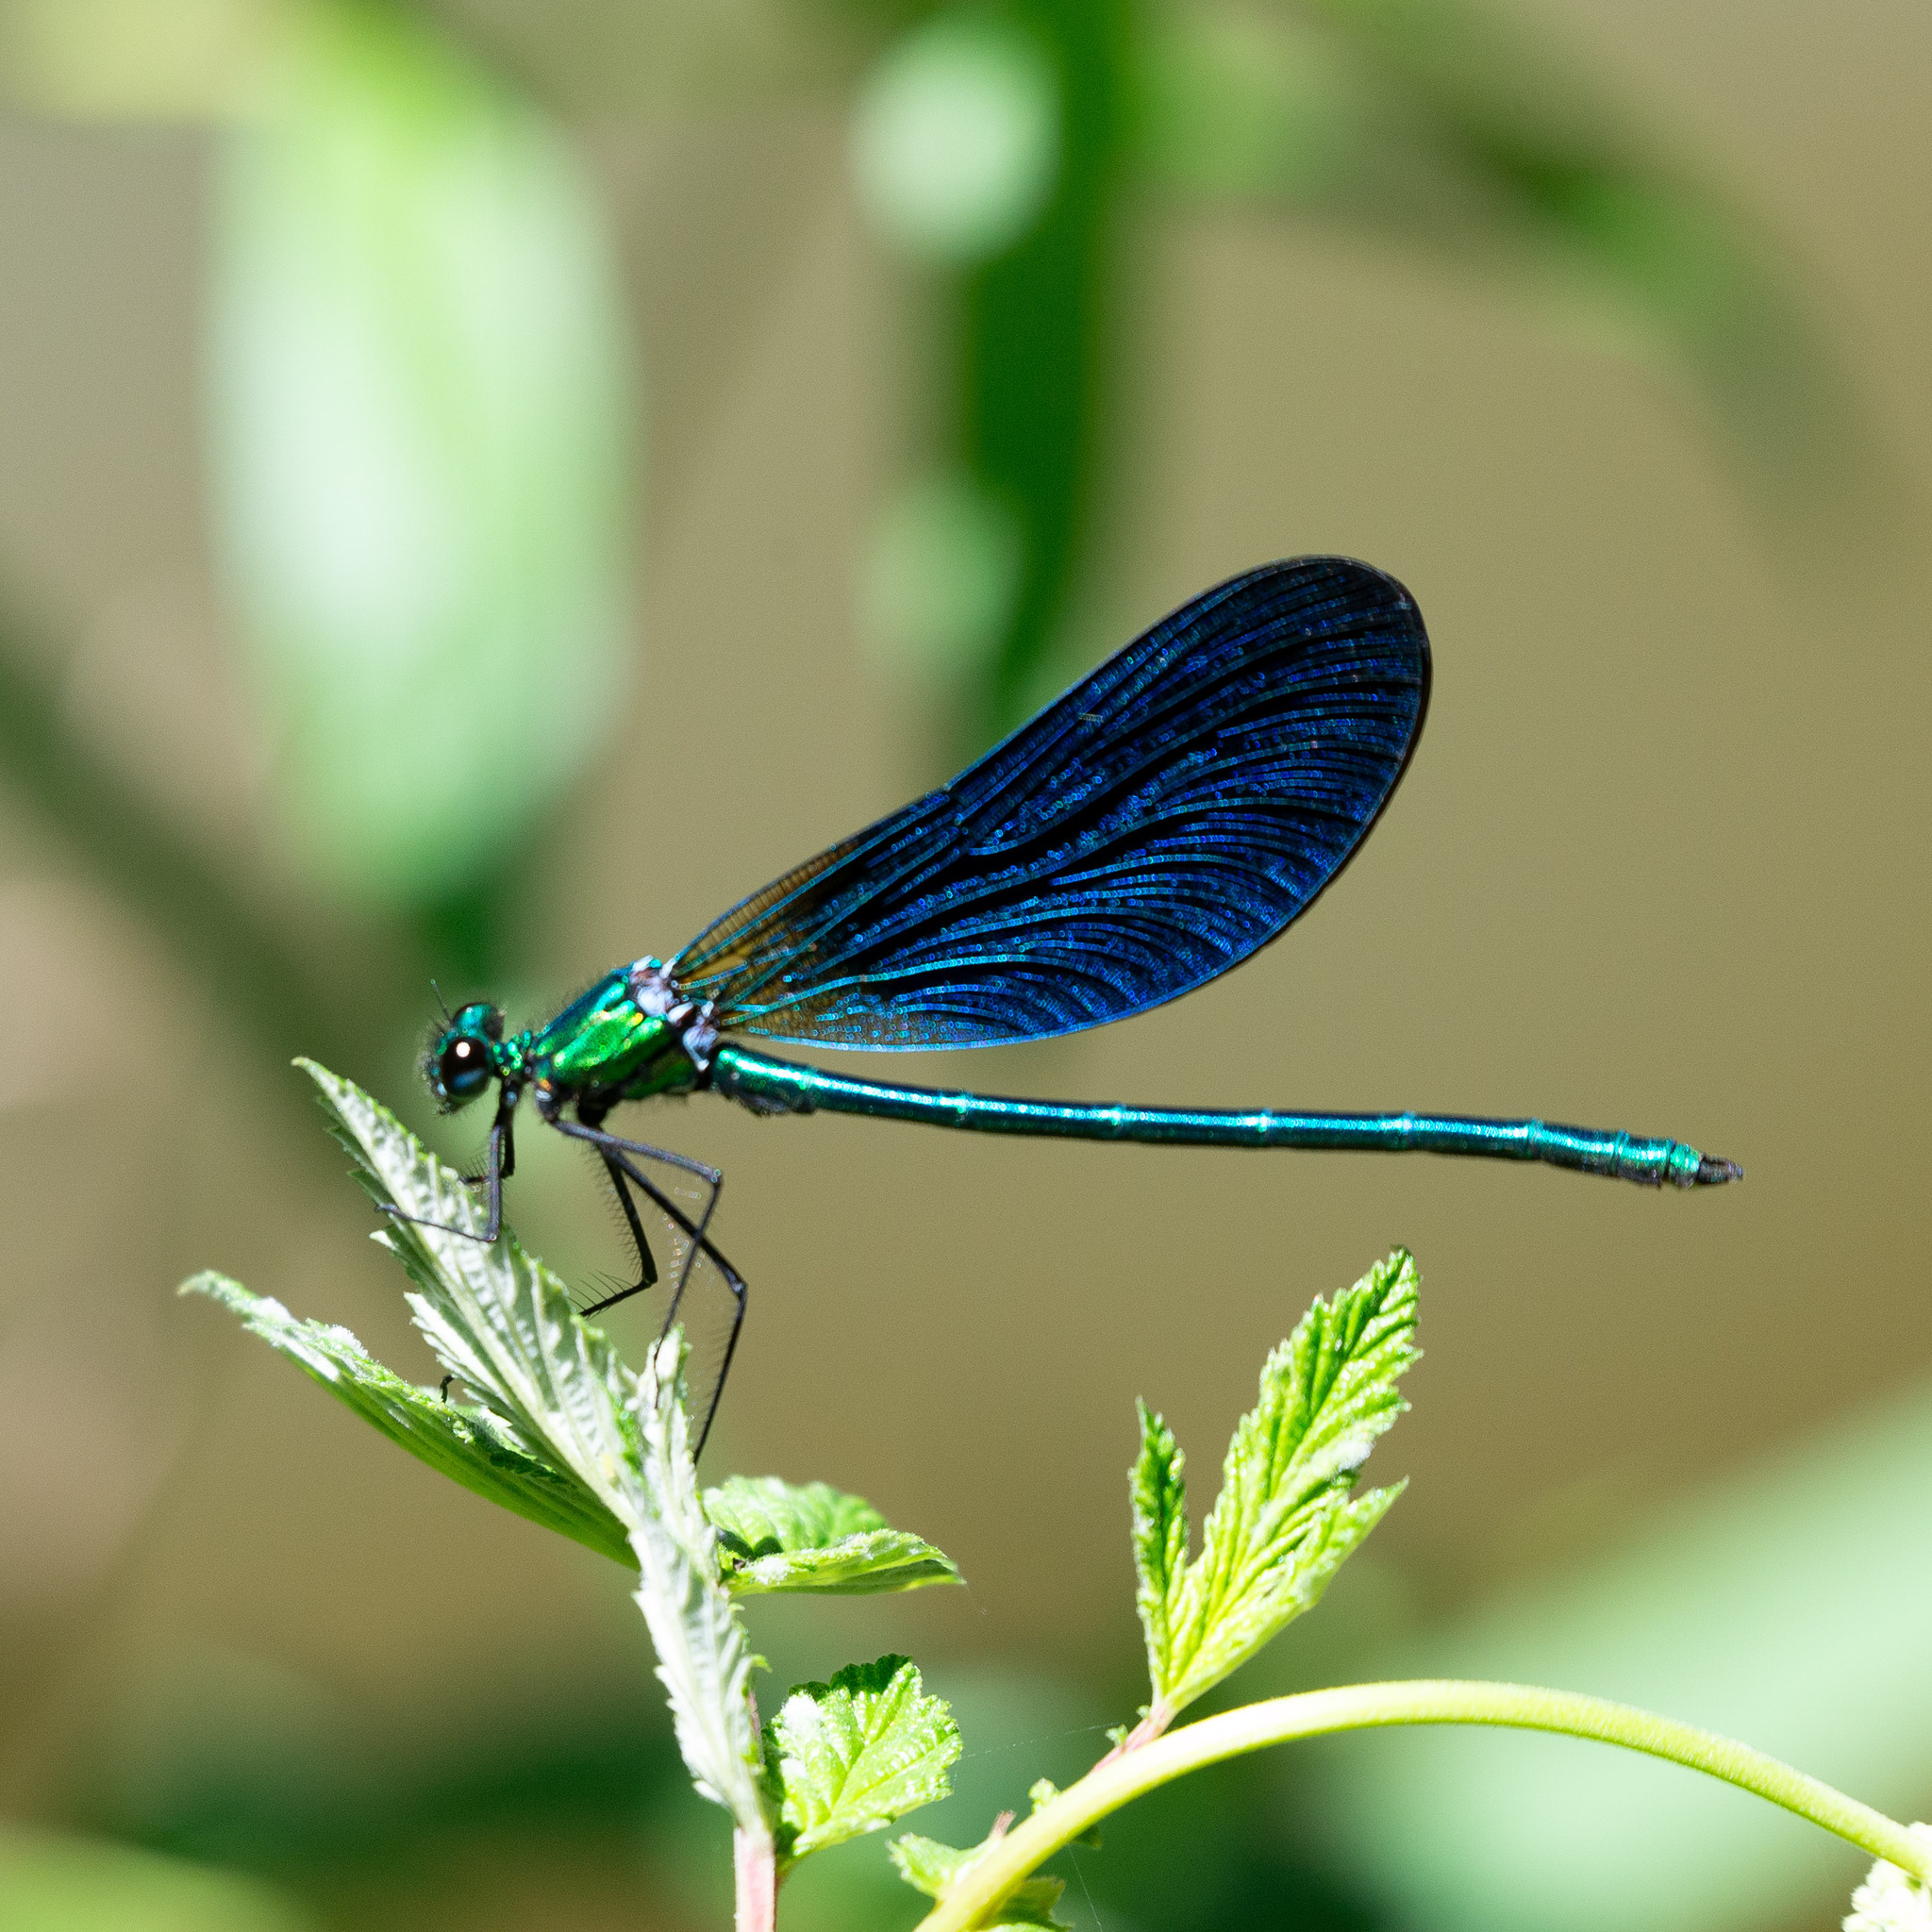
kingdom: Animalia
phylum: Arthropoda
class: Insecta
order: Odonata
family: Calopterygidae
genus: Calopteryx
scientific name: Calopteryx virgo
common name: Beautiful demoiselle
